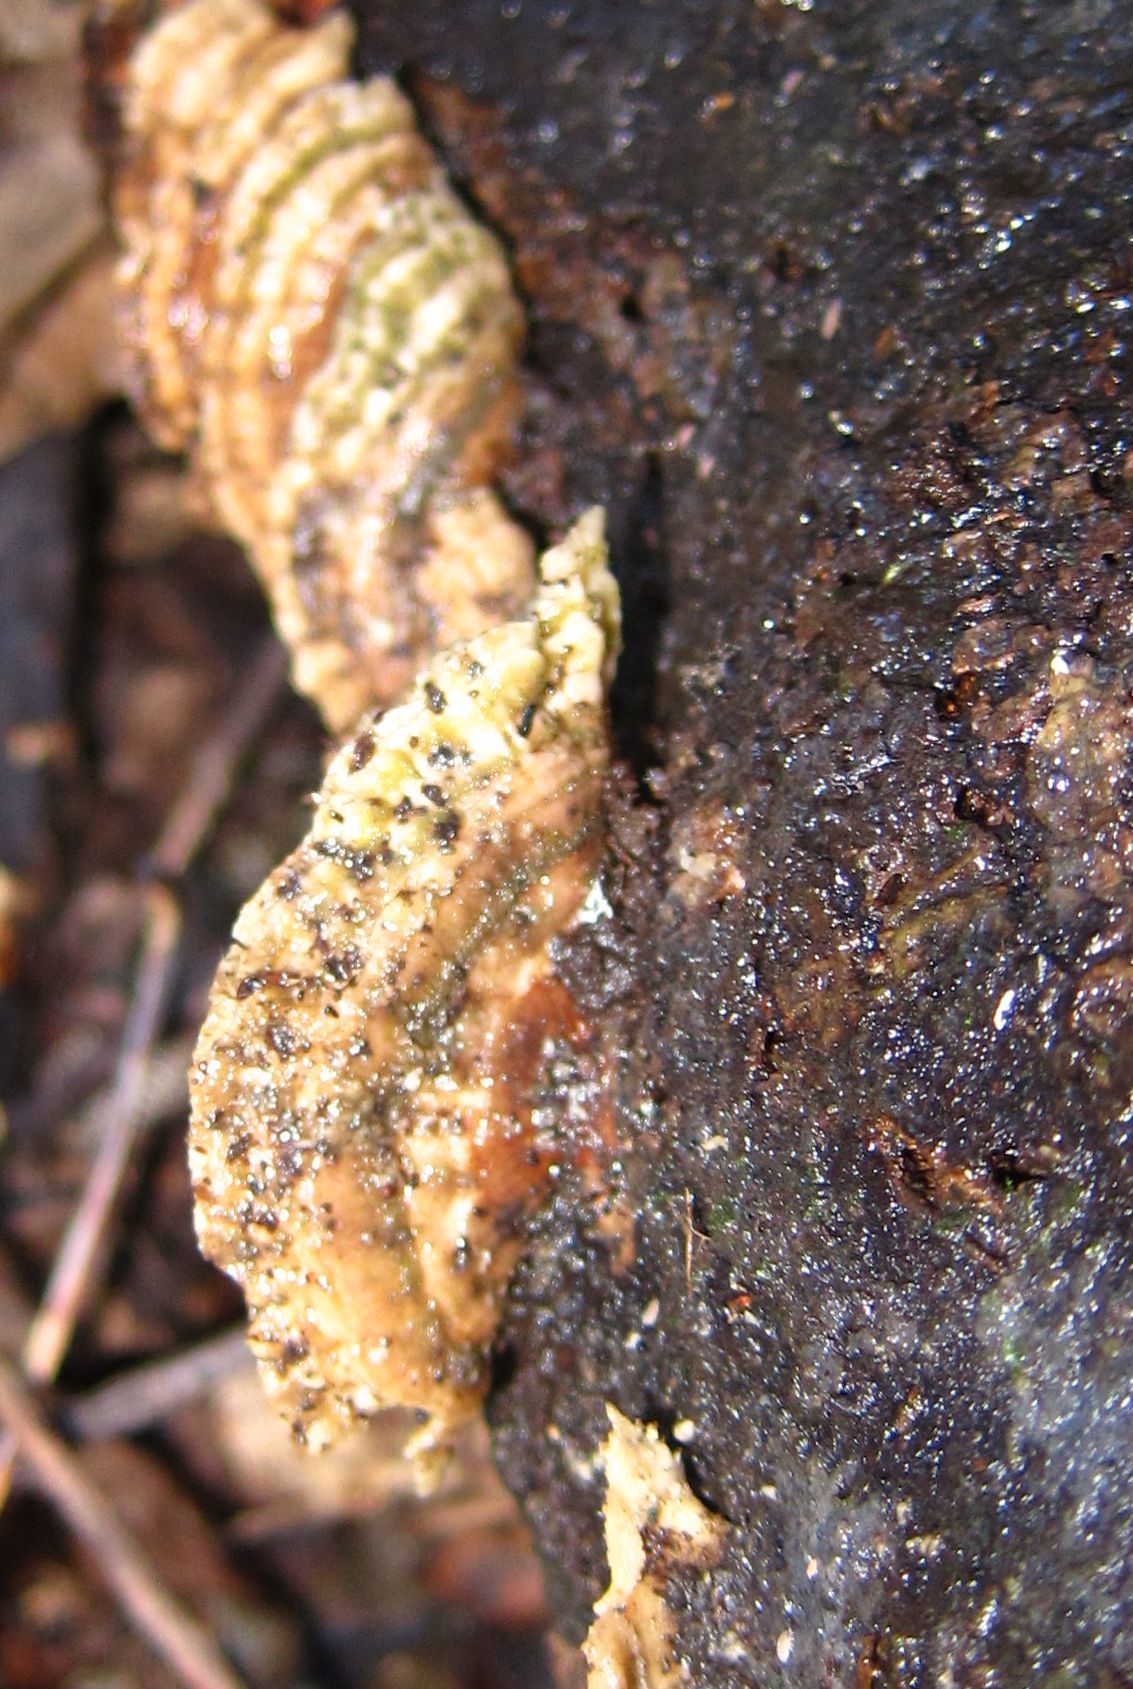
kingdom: Fungi
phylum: Basidiomycota
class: Agaricomycetes
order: Polyporales
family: Polyporaceae
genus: Trametes
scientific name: Trametes versicolor
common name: Turkeytail
